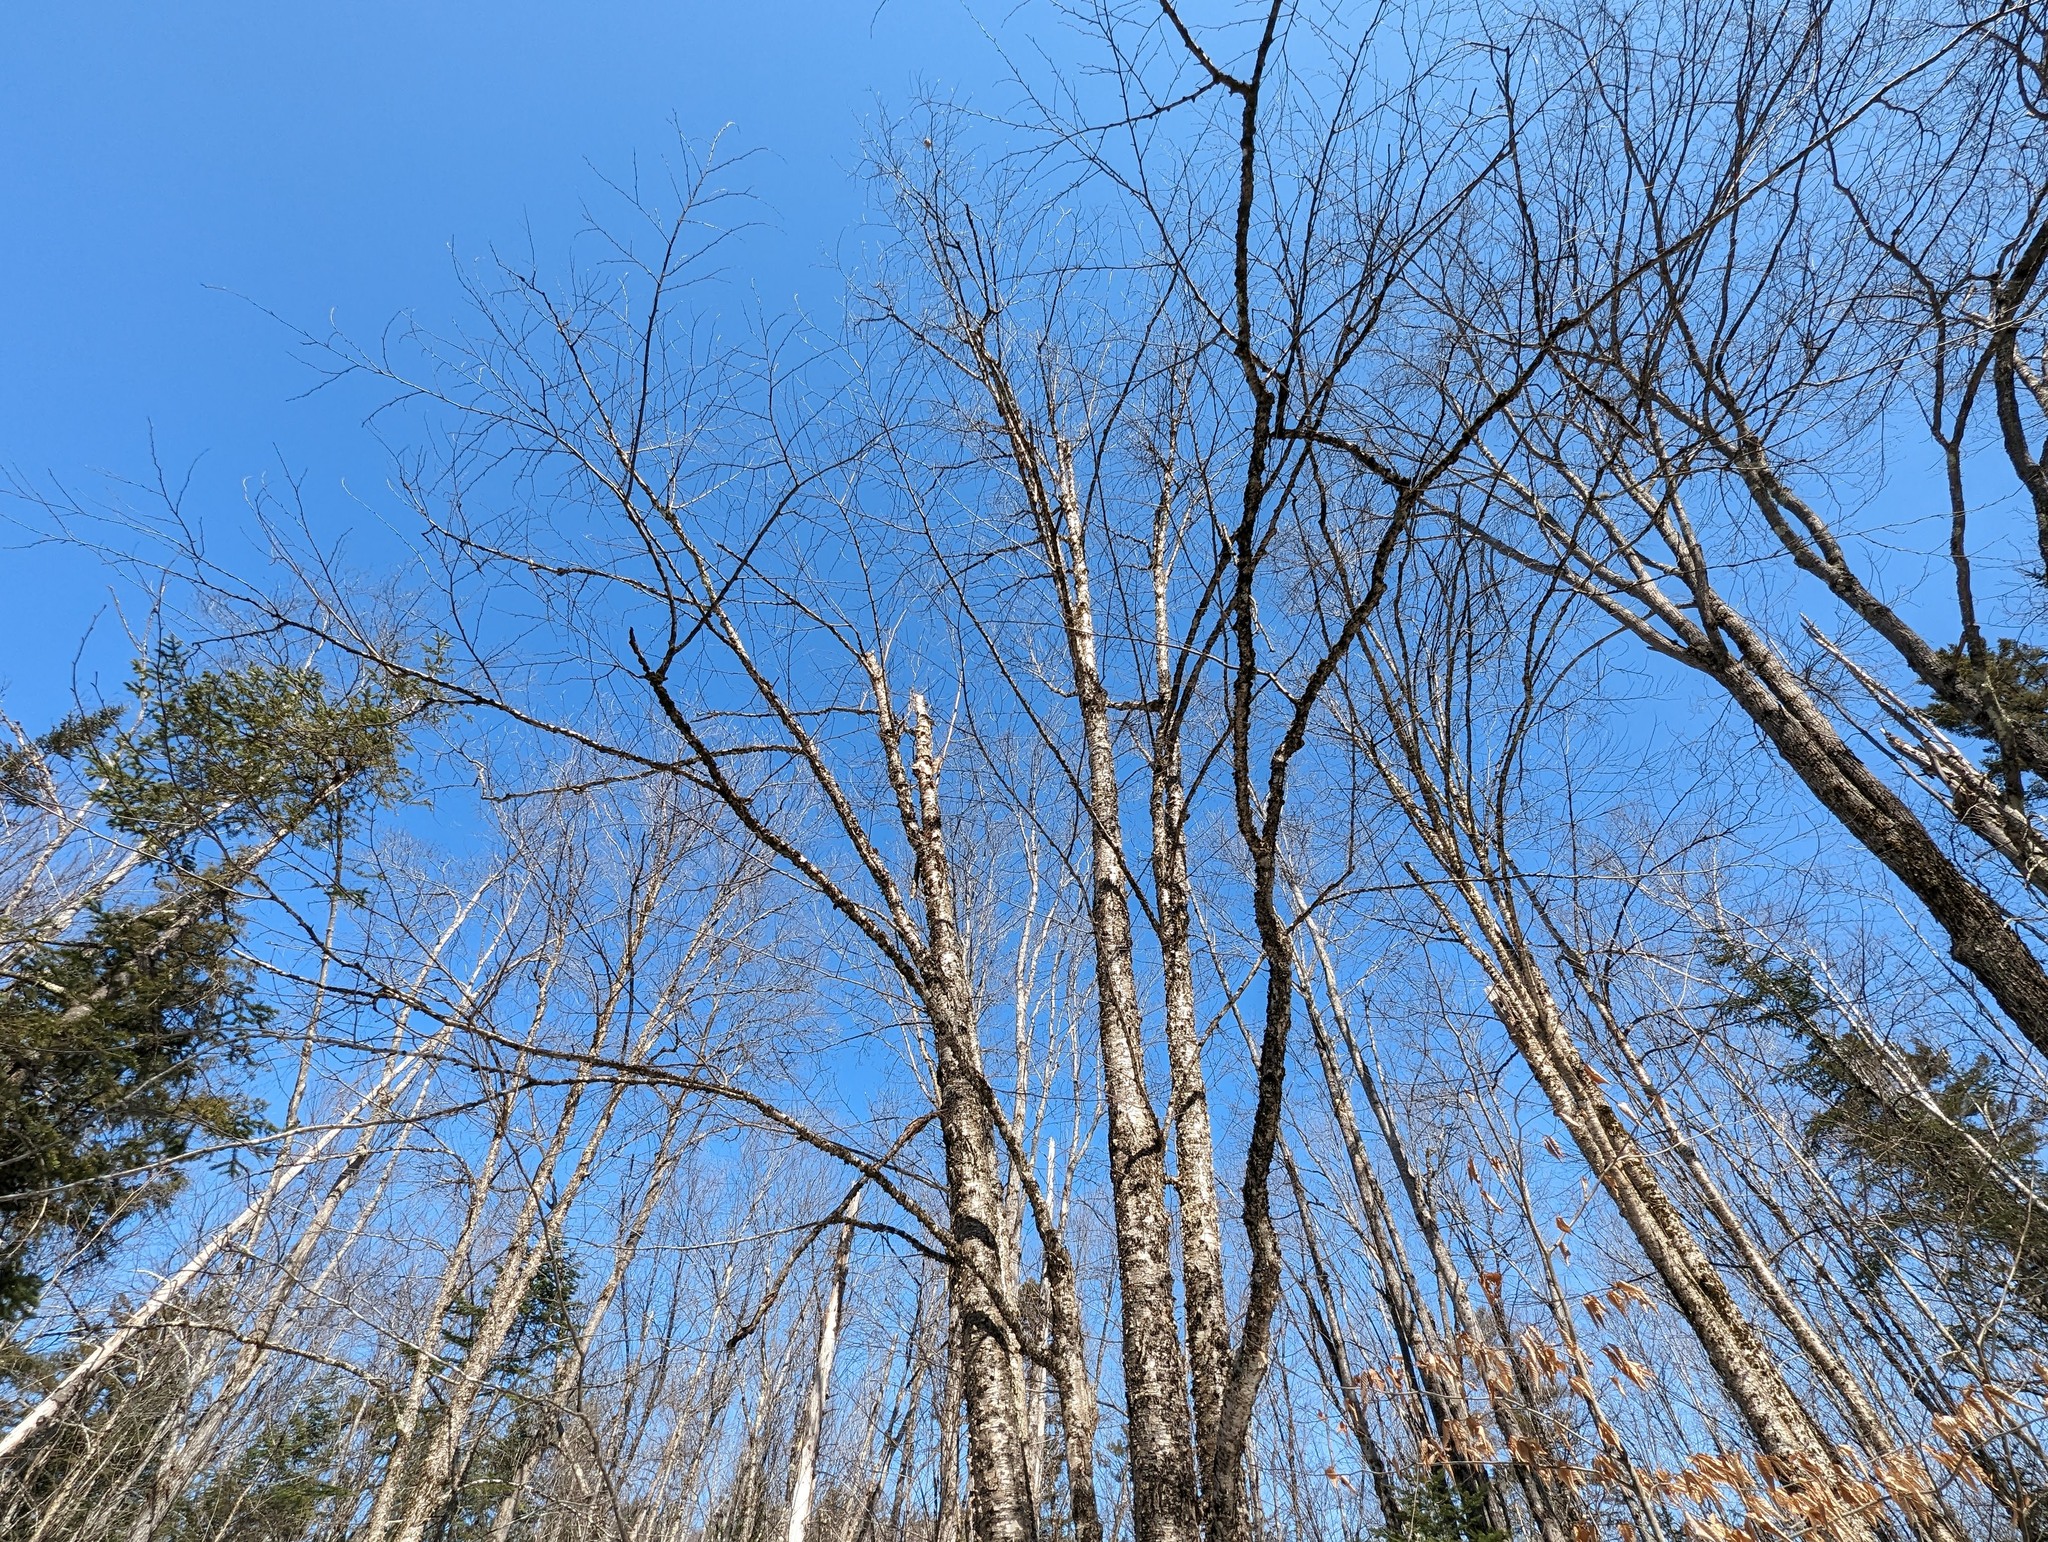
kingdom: Plantae
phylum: Tracheophyta
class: Magnoliopsida
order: Fagales
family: Betulaceae
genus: Betula
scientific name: Betula alleghaniensis
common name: Yellow birch
